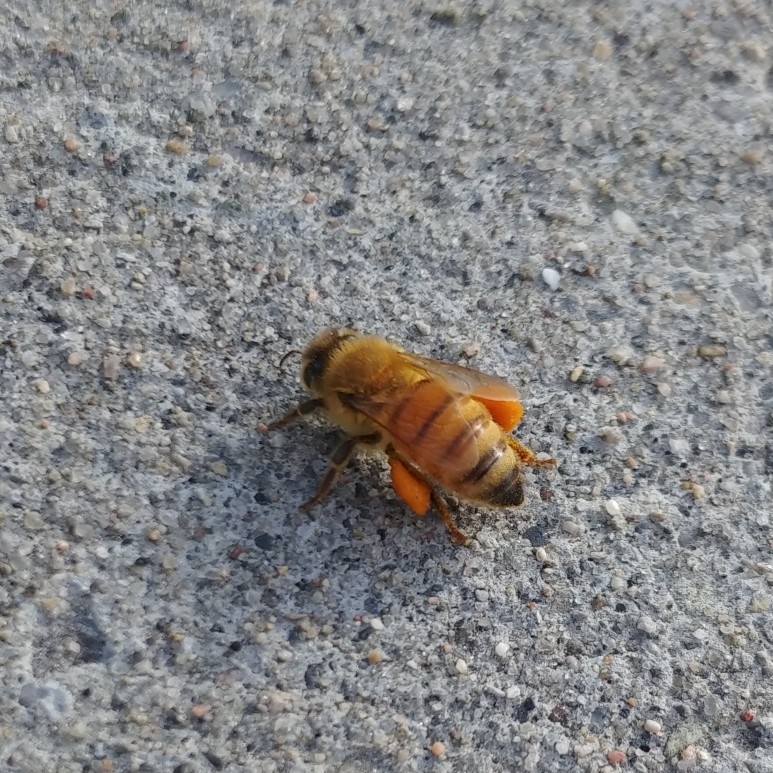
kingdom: Animalia
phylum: Arthropoda
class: Insecta
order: Hymenoptera
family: Apidae
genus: Apis
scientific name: Apis mellifera
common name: Honey bee
